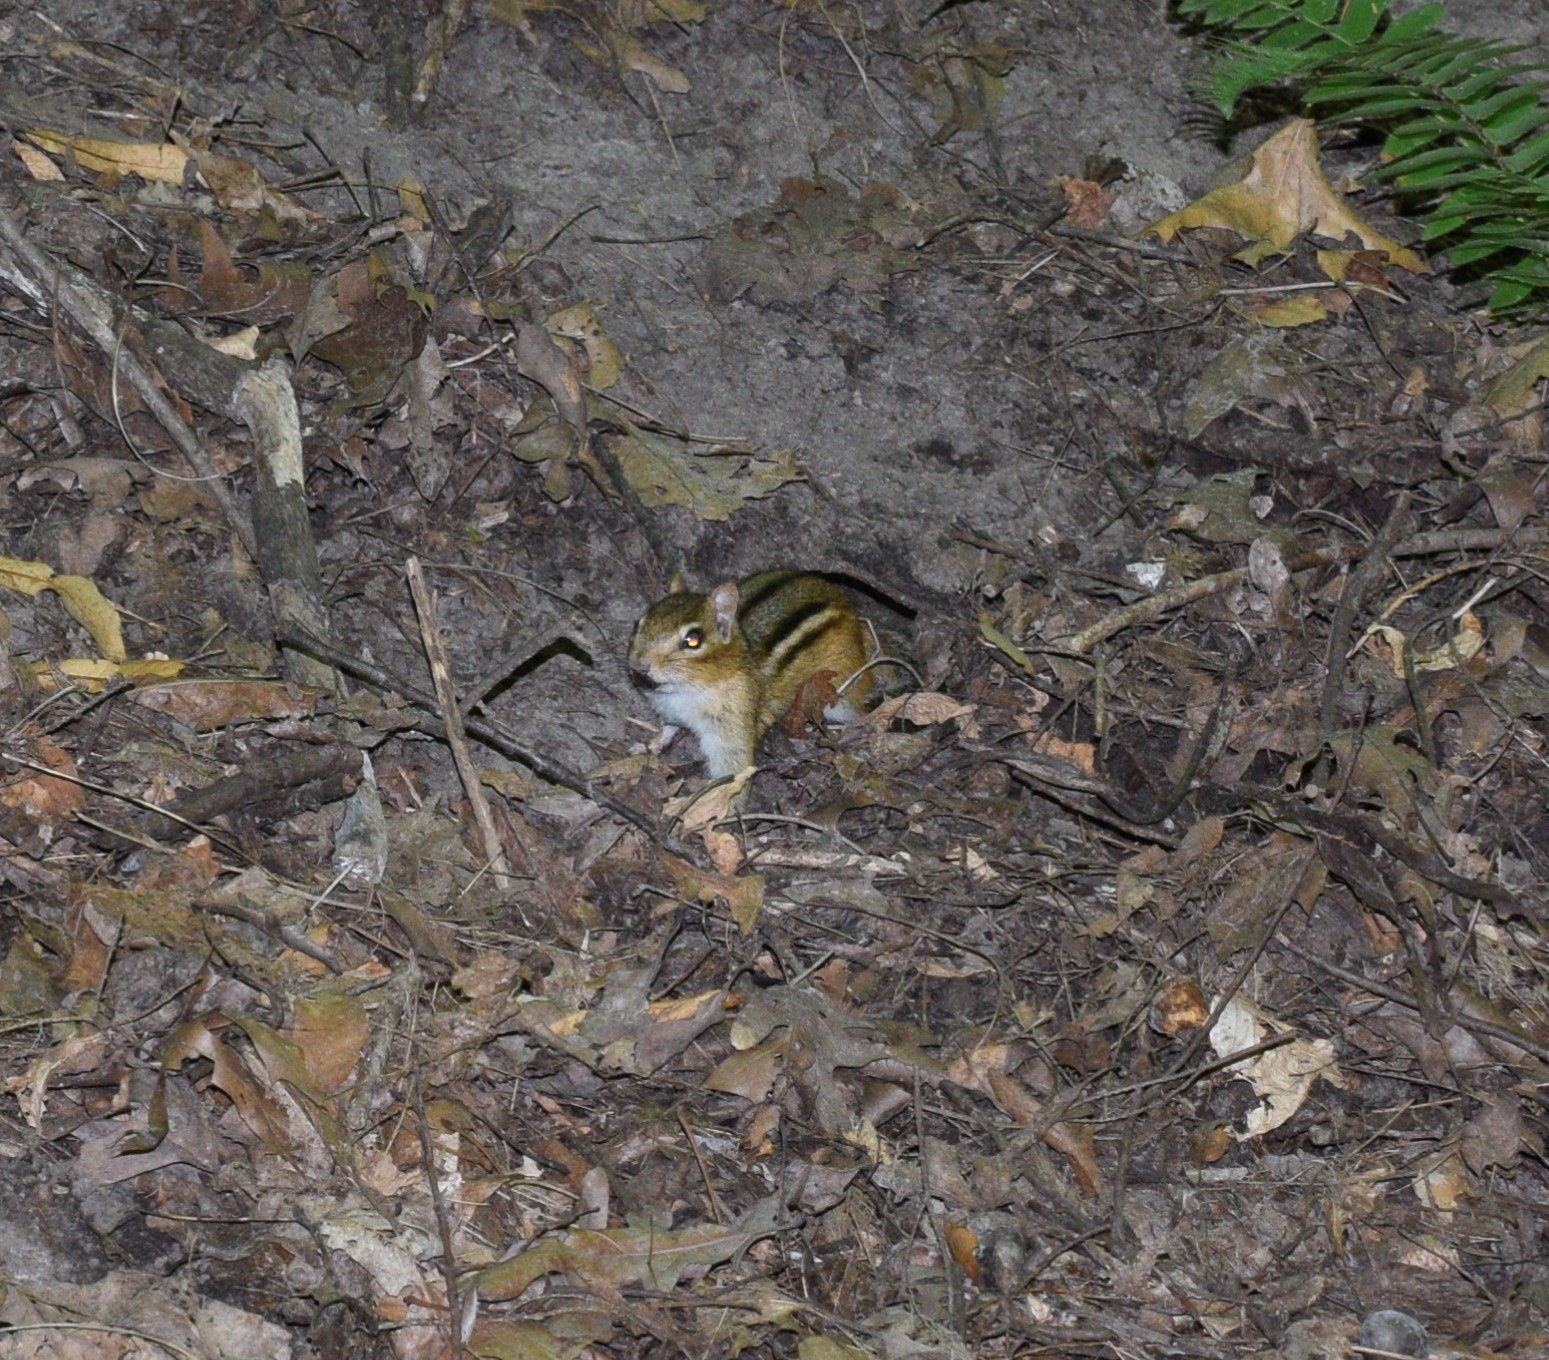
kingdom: Animalia
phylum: Chordata
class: Mammalia
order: Rodentia
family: Sciuridae
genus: Tamias
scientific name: Tamias striatus
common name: Eastern chipmunk
